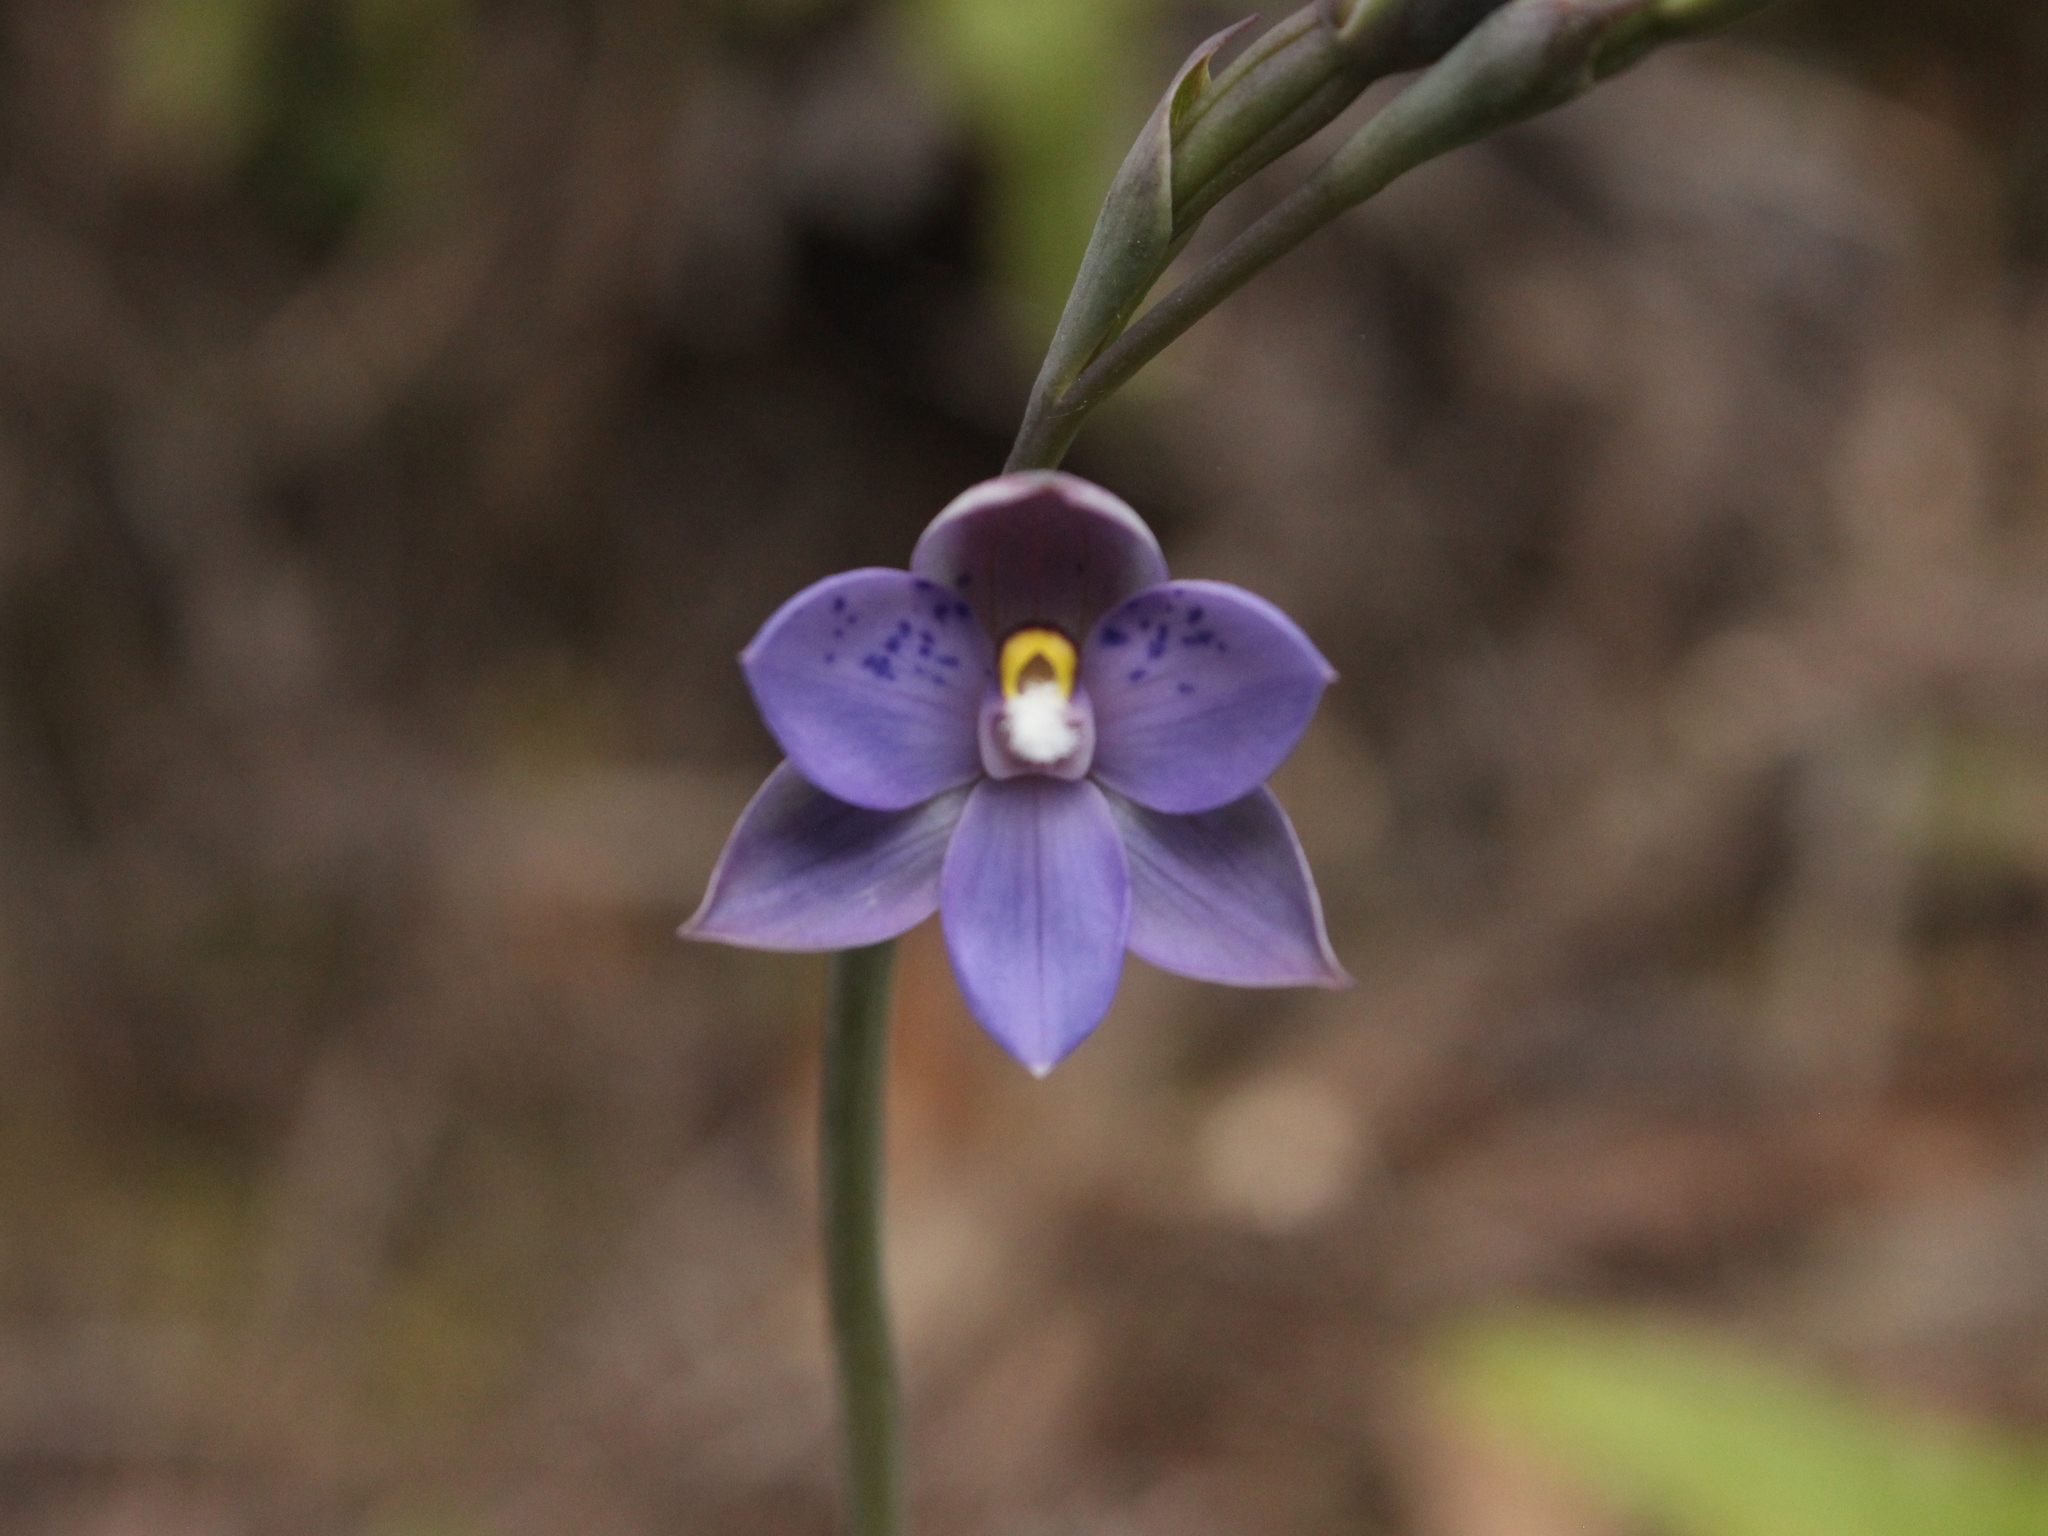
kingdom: Plantae
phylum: Tracheophyta
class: Liliopsida
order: Asparagales
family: Orchidaceae
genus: Thelymitra
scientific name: Thelymitra nervosa
